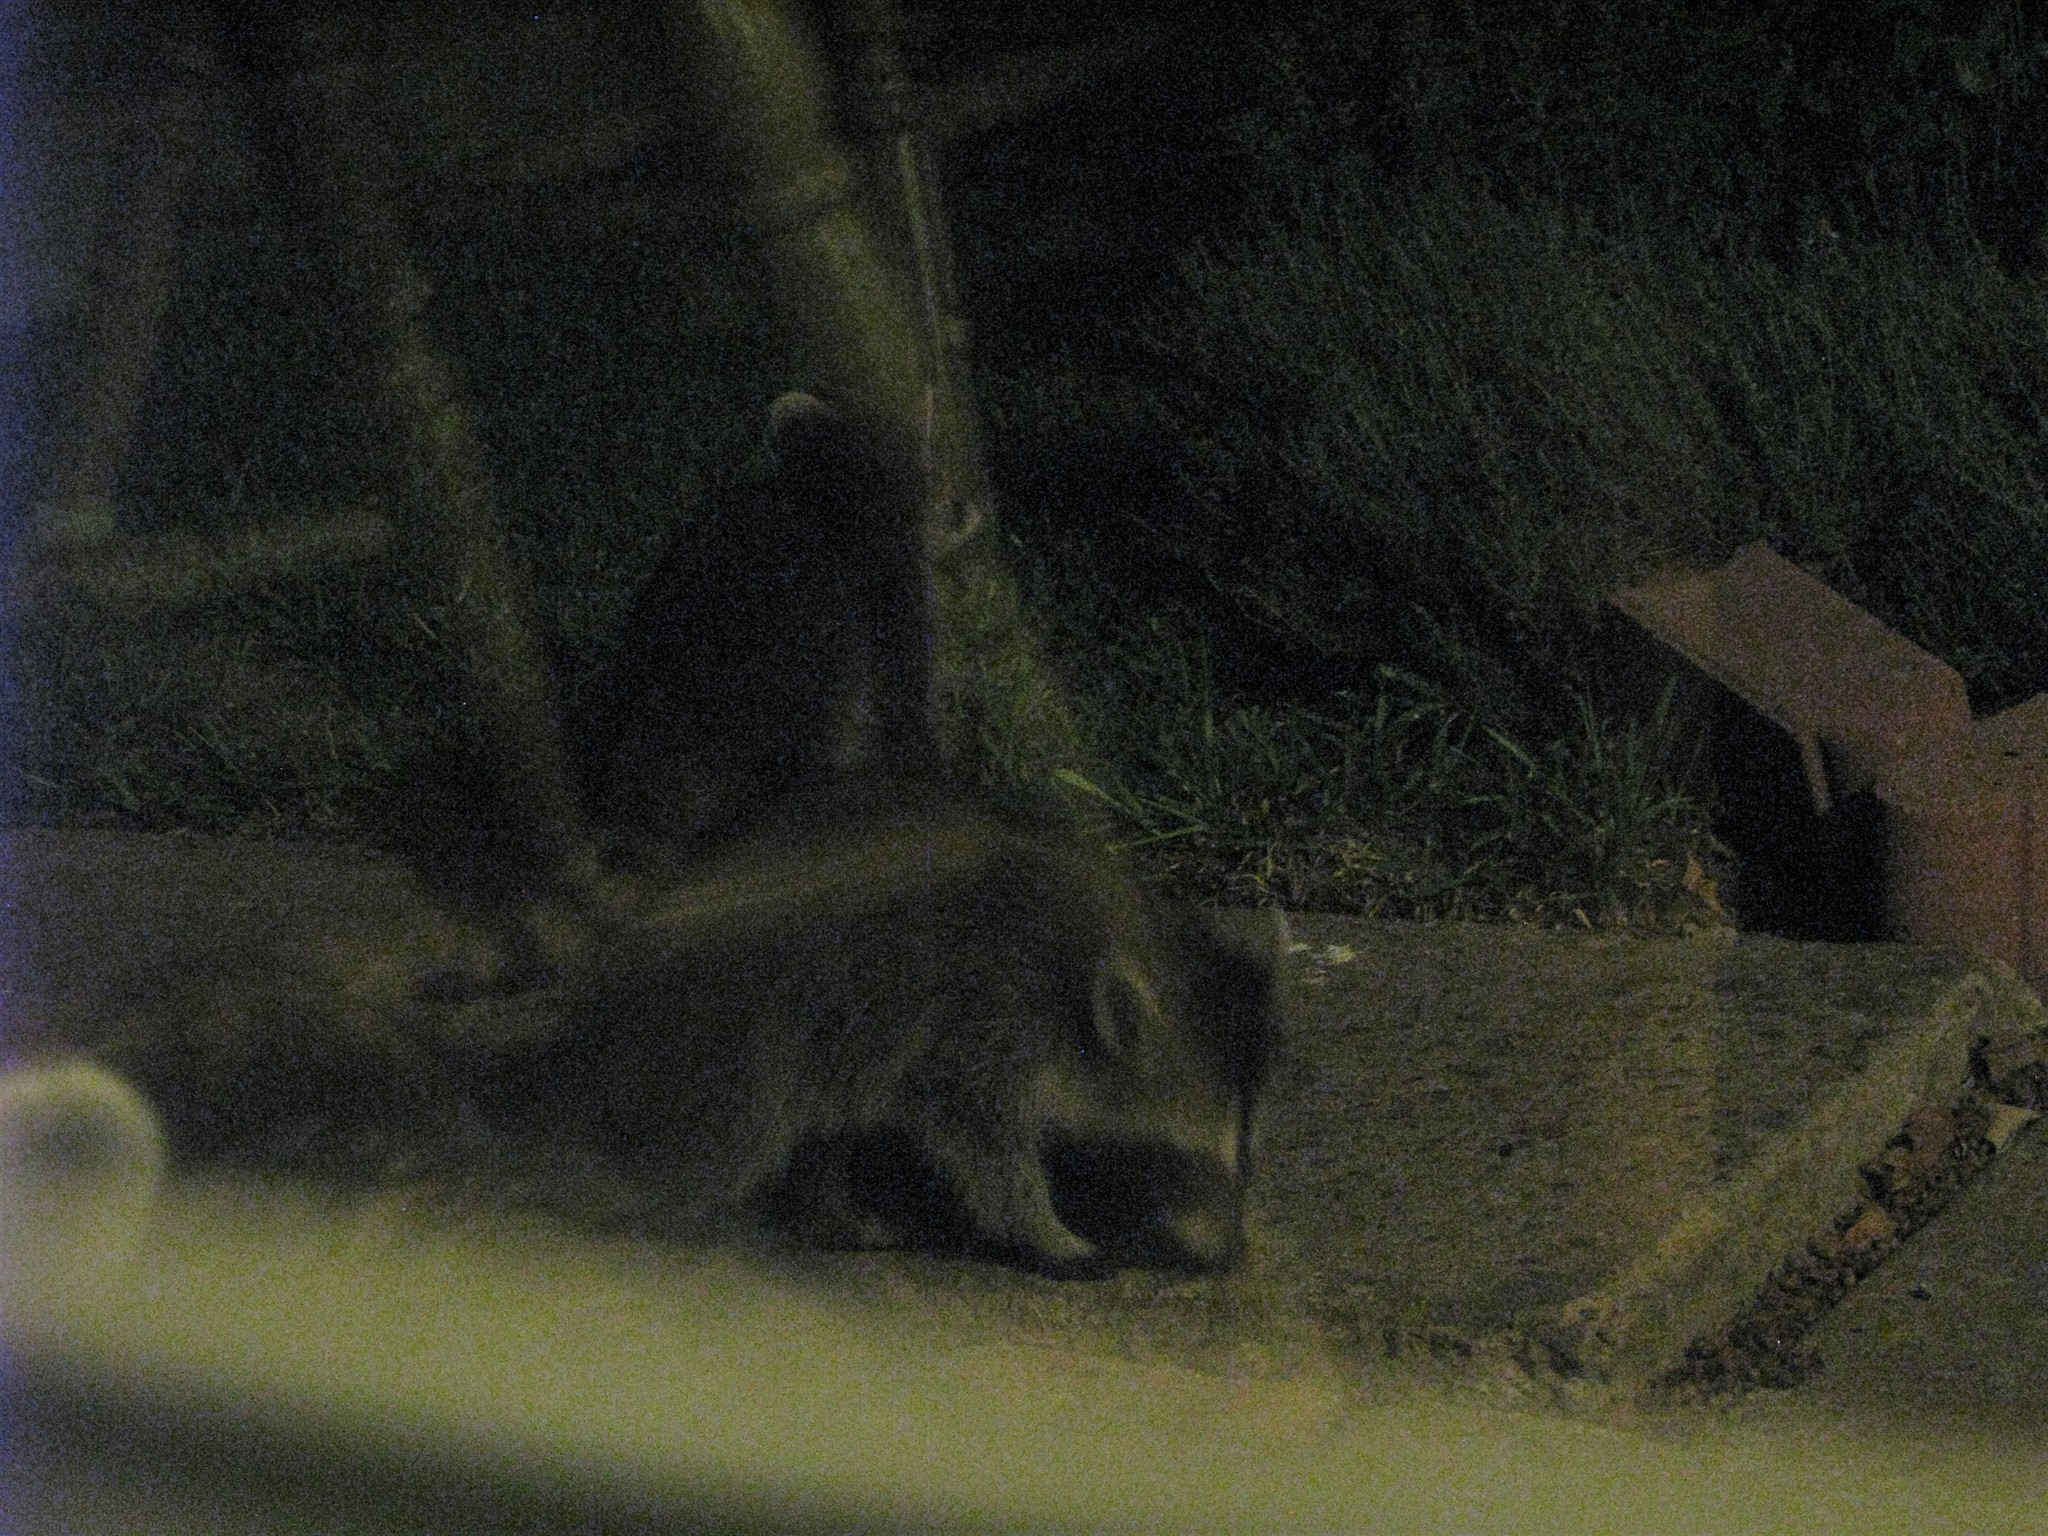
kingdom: Animalia
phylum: Chordata
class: Mammalia
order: Carnivora
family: Procyonidae
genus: Procyon
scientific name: Procyon lotor
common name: Raccoon
